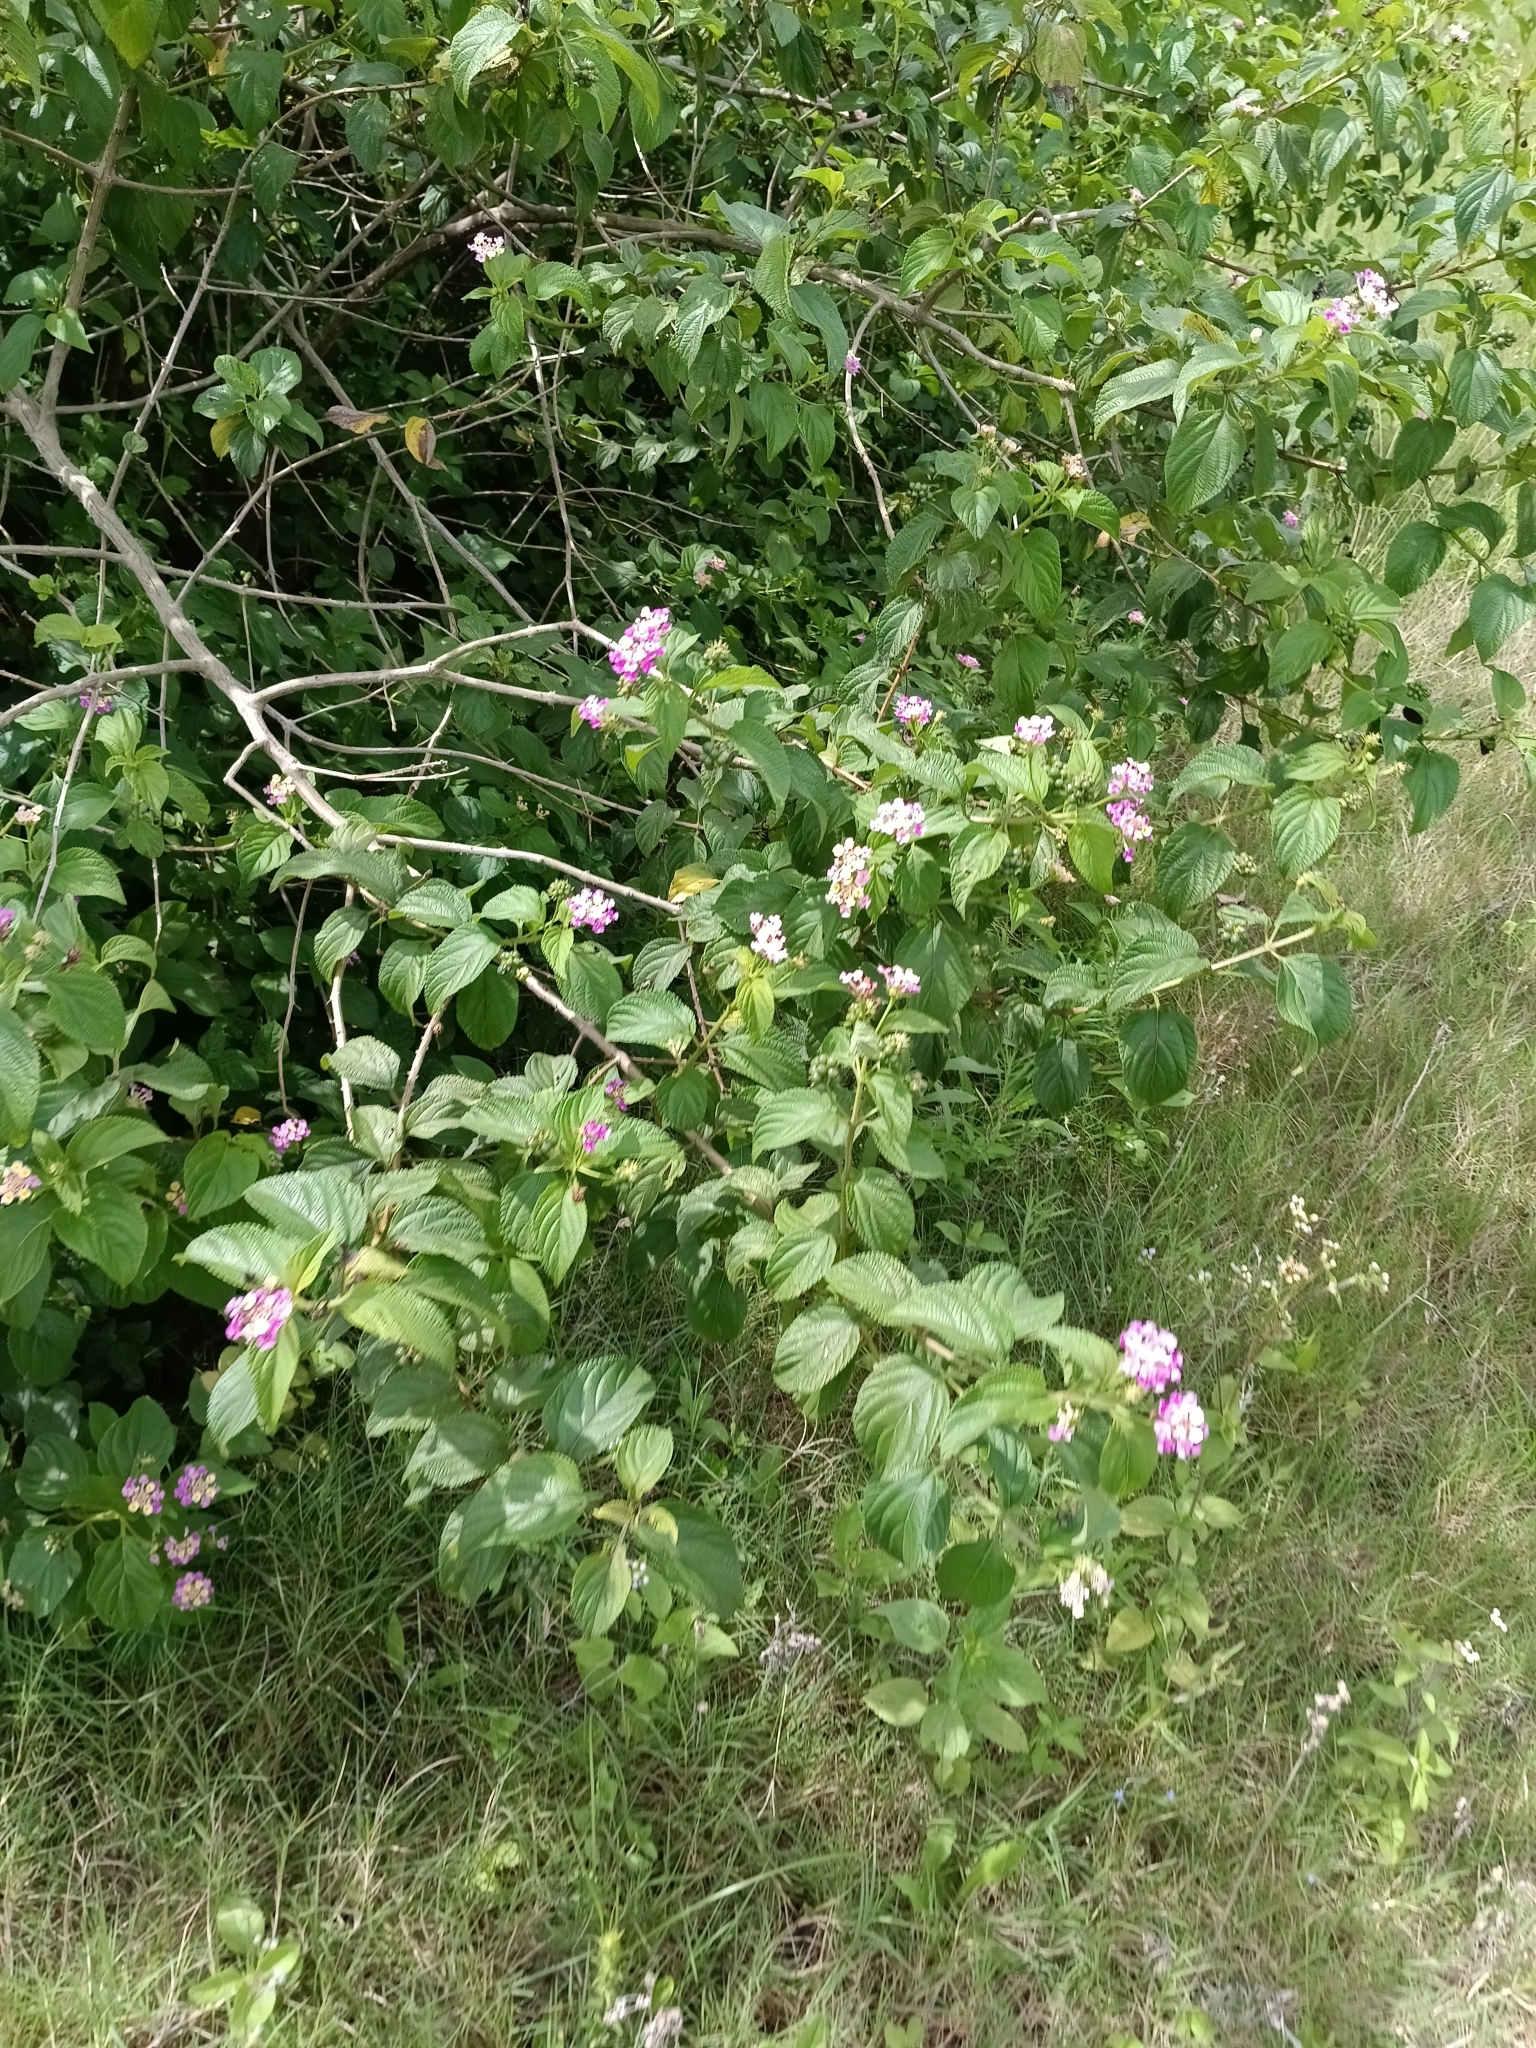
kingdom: Plantae
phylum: Tracheophyta
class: Magnoliopsida
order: Lamiales
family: Verbenaceae
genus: Lantana
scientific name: Lantana camara
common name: Lantana
